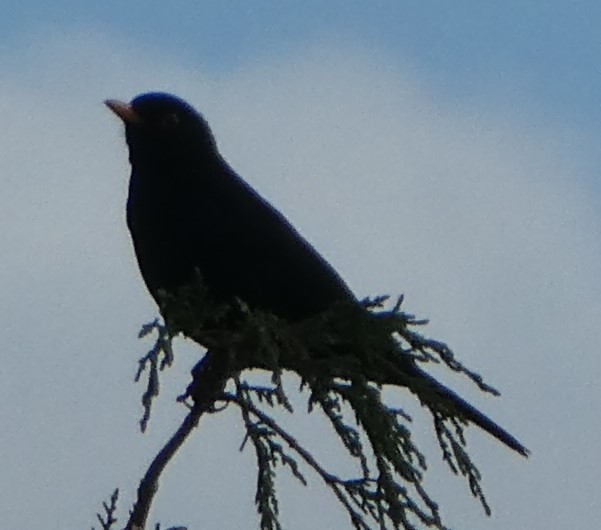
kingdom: Animalia
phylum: Chordata
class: Aves
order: Passeriformes
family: Turdidae
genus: Turdus
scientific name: Turdus merula
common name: Common blackbird
